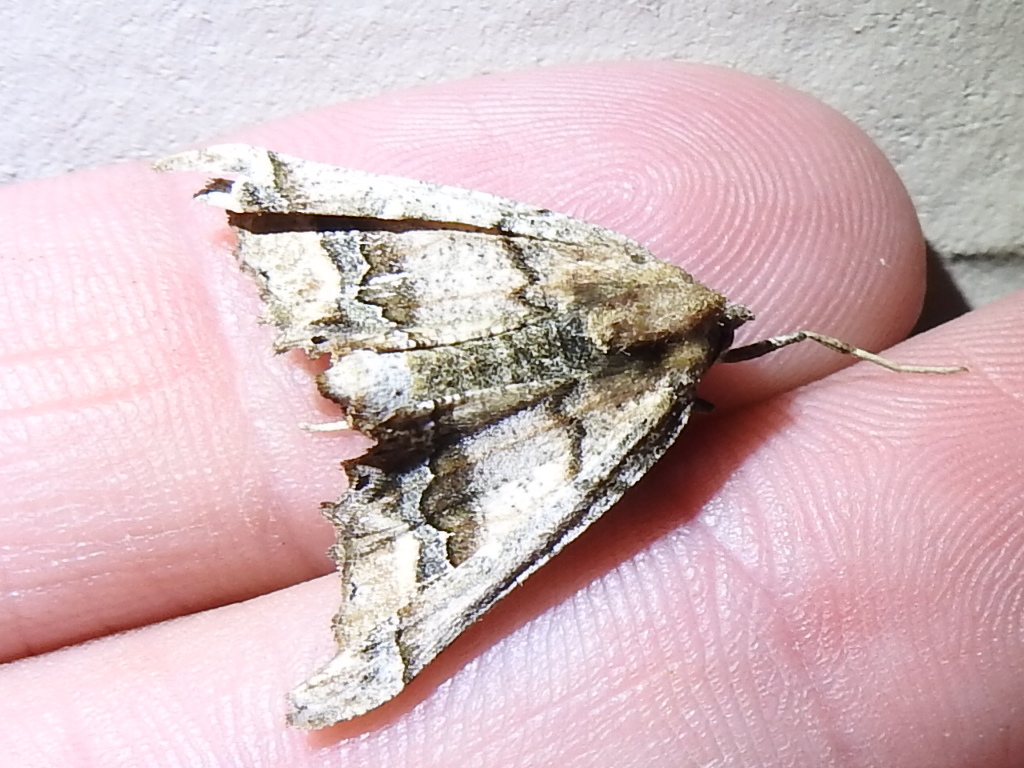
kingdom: Animalia
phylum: Arthropoda
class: Insecta
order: Lepidoptera
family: Geometridae
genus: Pero
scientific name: Pero meskaria
